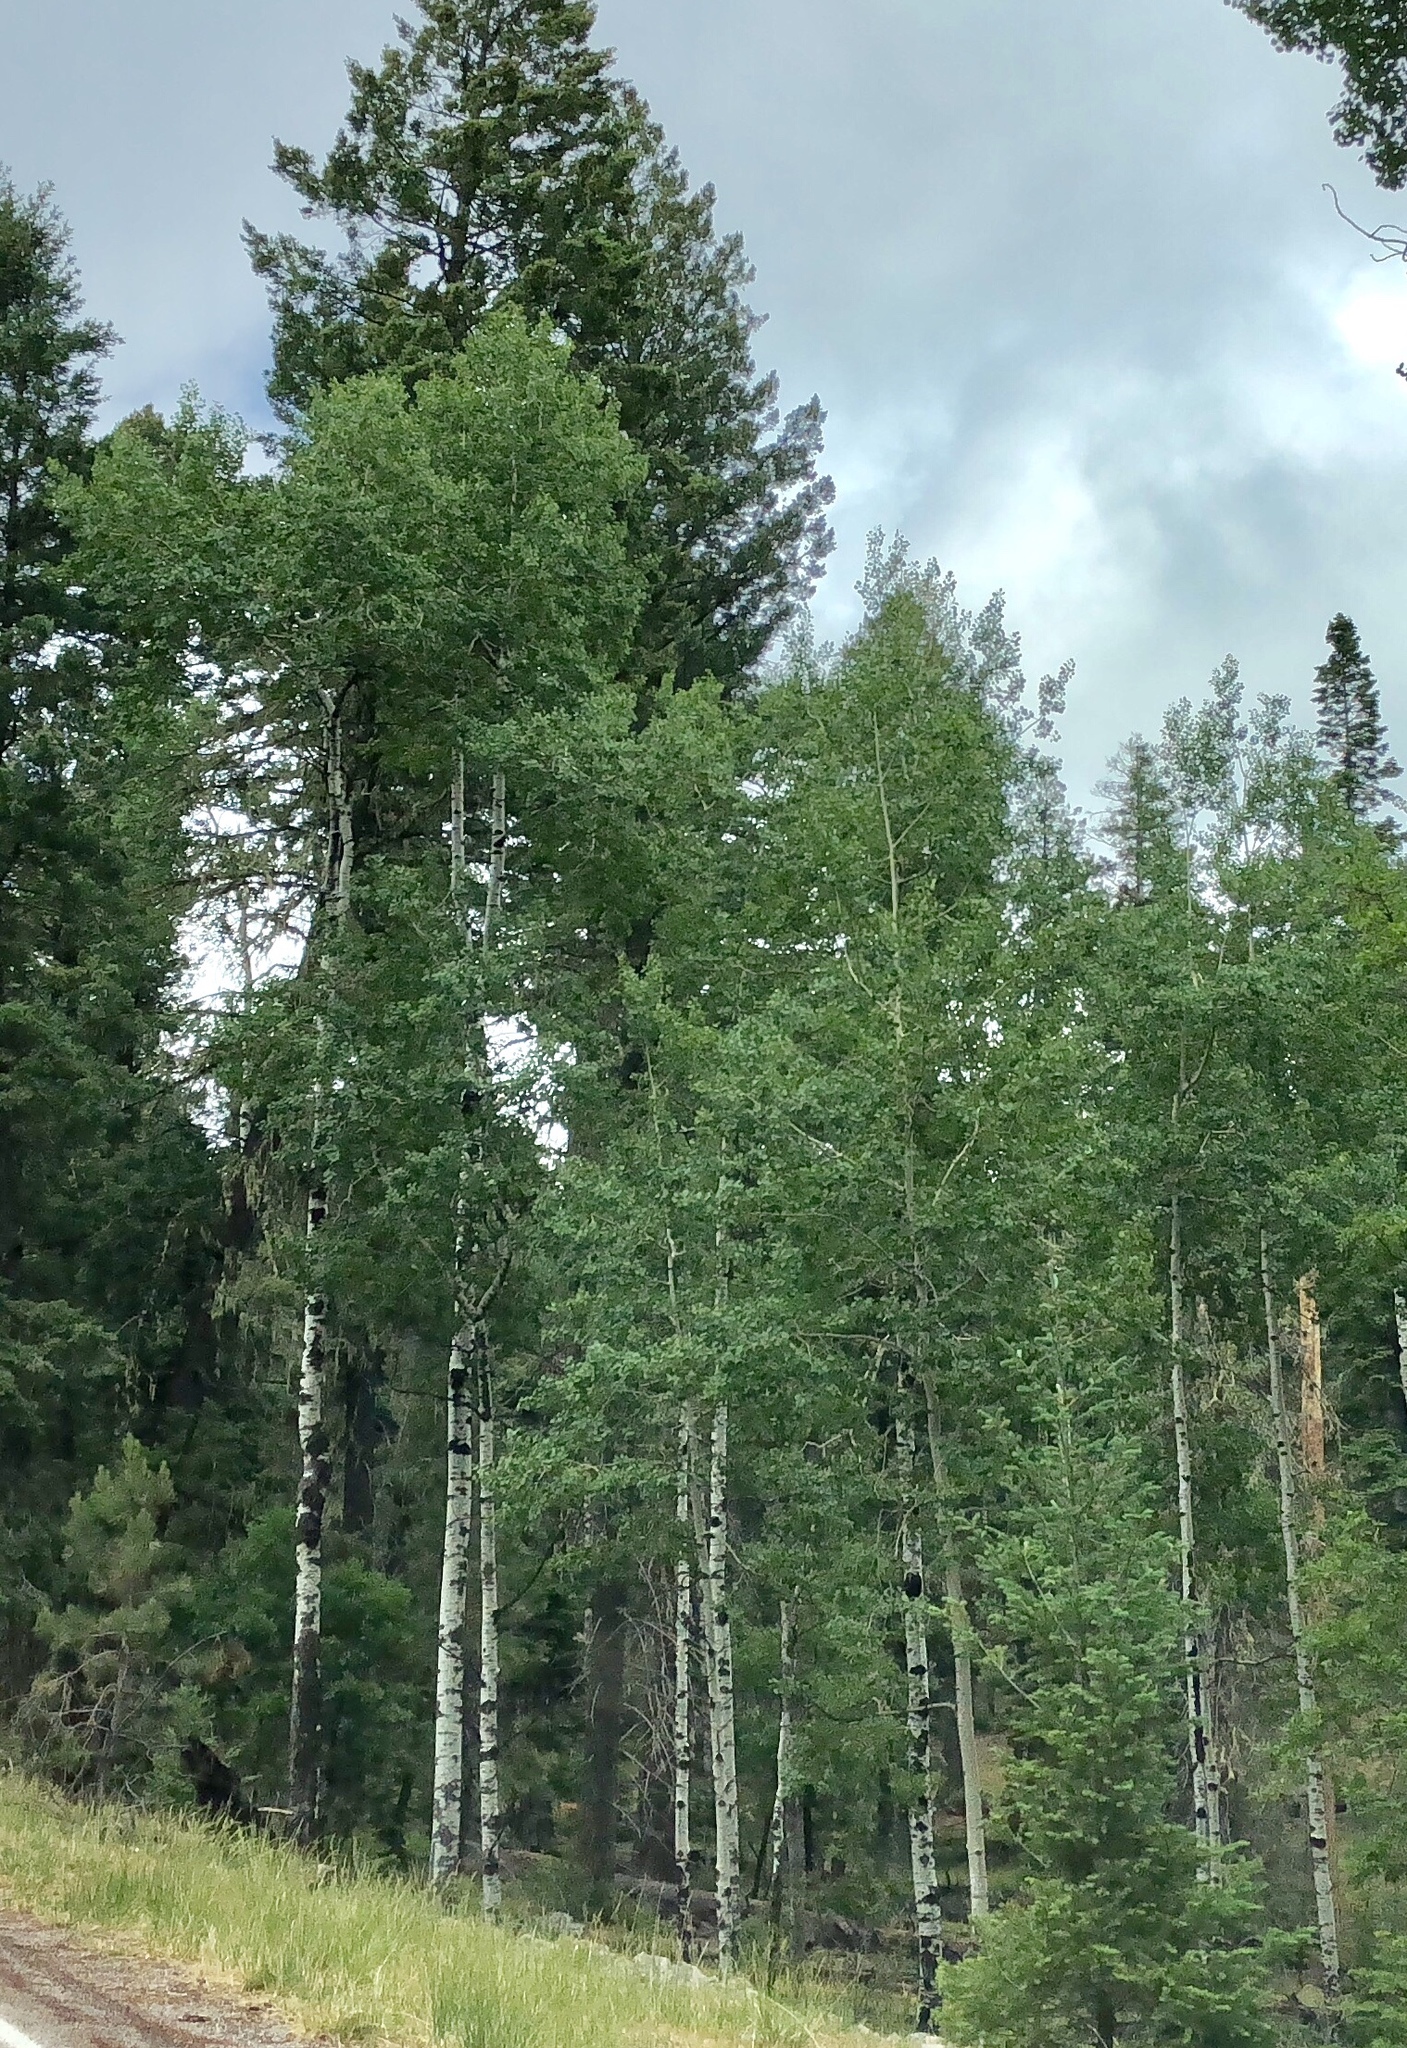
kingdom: Plantae
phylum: Tracheophyta
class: Magnoliopsida
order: Malpighiales
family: Salicaceae
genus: Populus
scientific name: Populus tremuloides
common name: Quaking aspen
